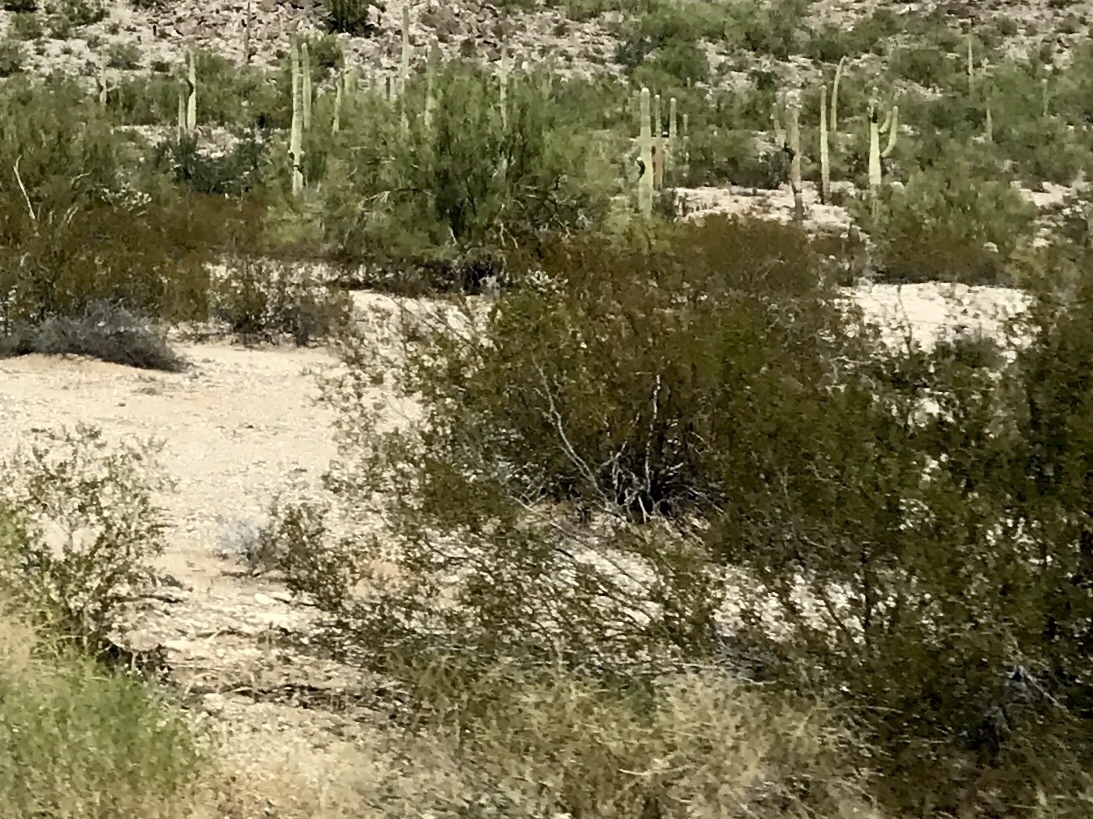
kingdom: Plantae
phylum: Tracheophyta
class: Magnoliopsida
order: Zygophyllales
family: Zygophyllaceae
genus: Larrea
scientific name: Larrea tridentata
